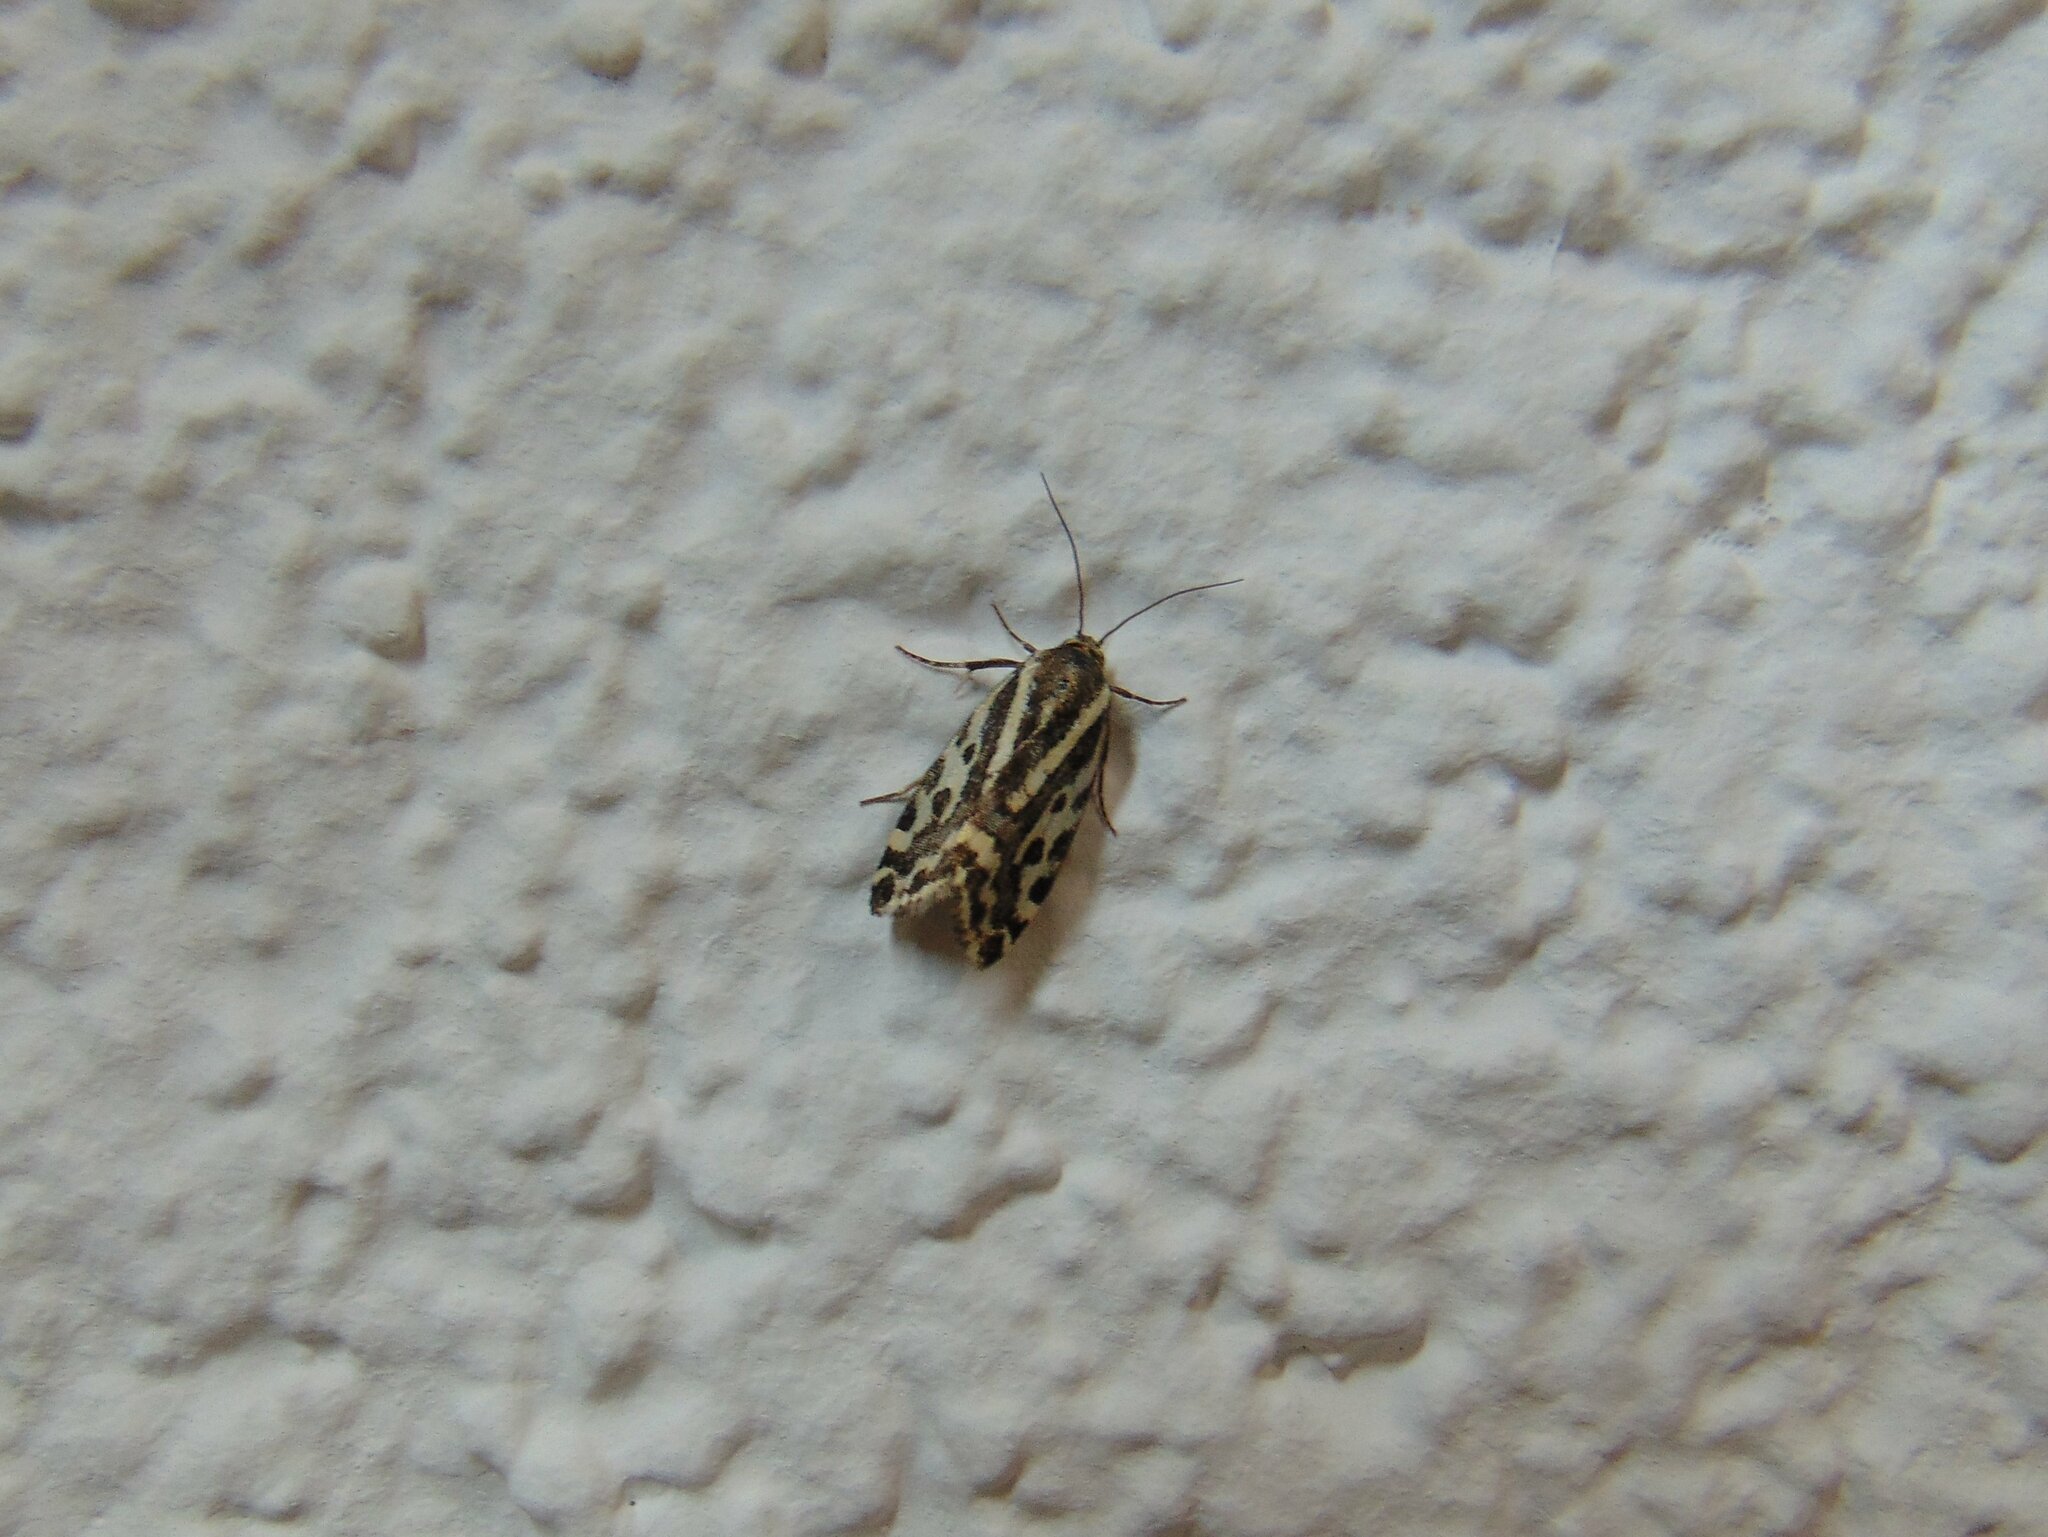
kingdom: Animalia
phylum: Arthropoda
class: Insecta
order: Lepidoptera
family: Noctuidae
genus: Acontia
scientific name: Acontia trabealis
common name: Spotted sulphur
